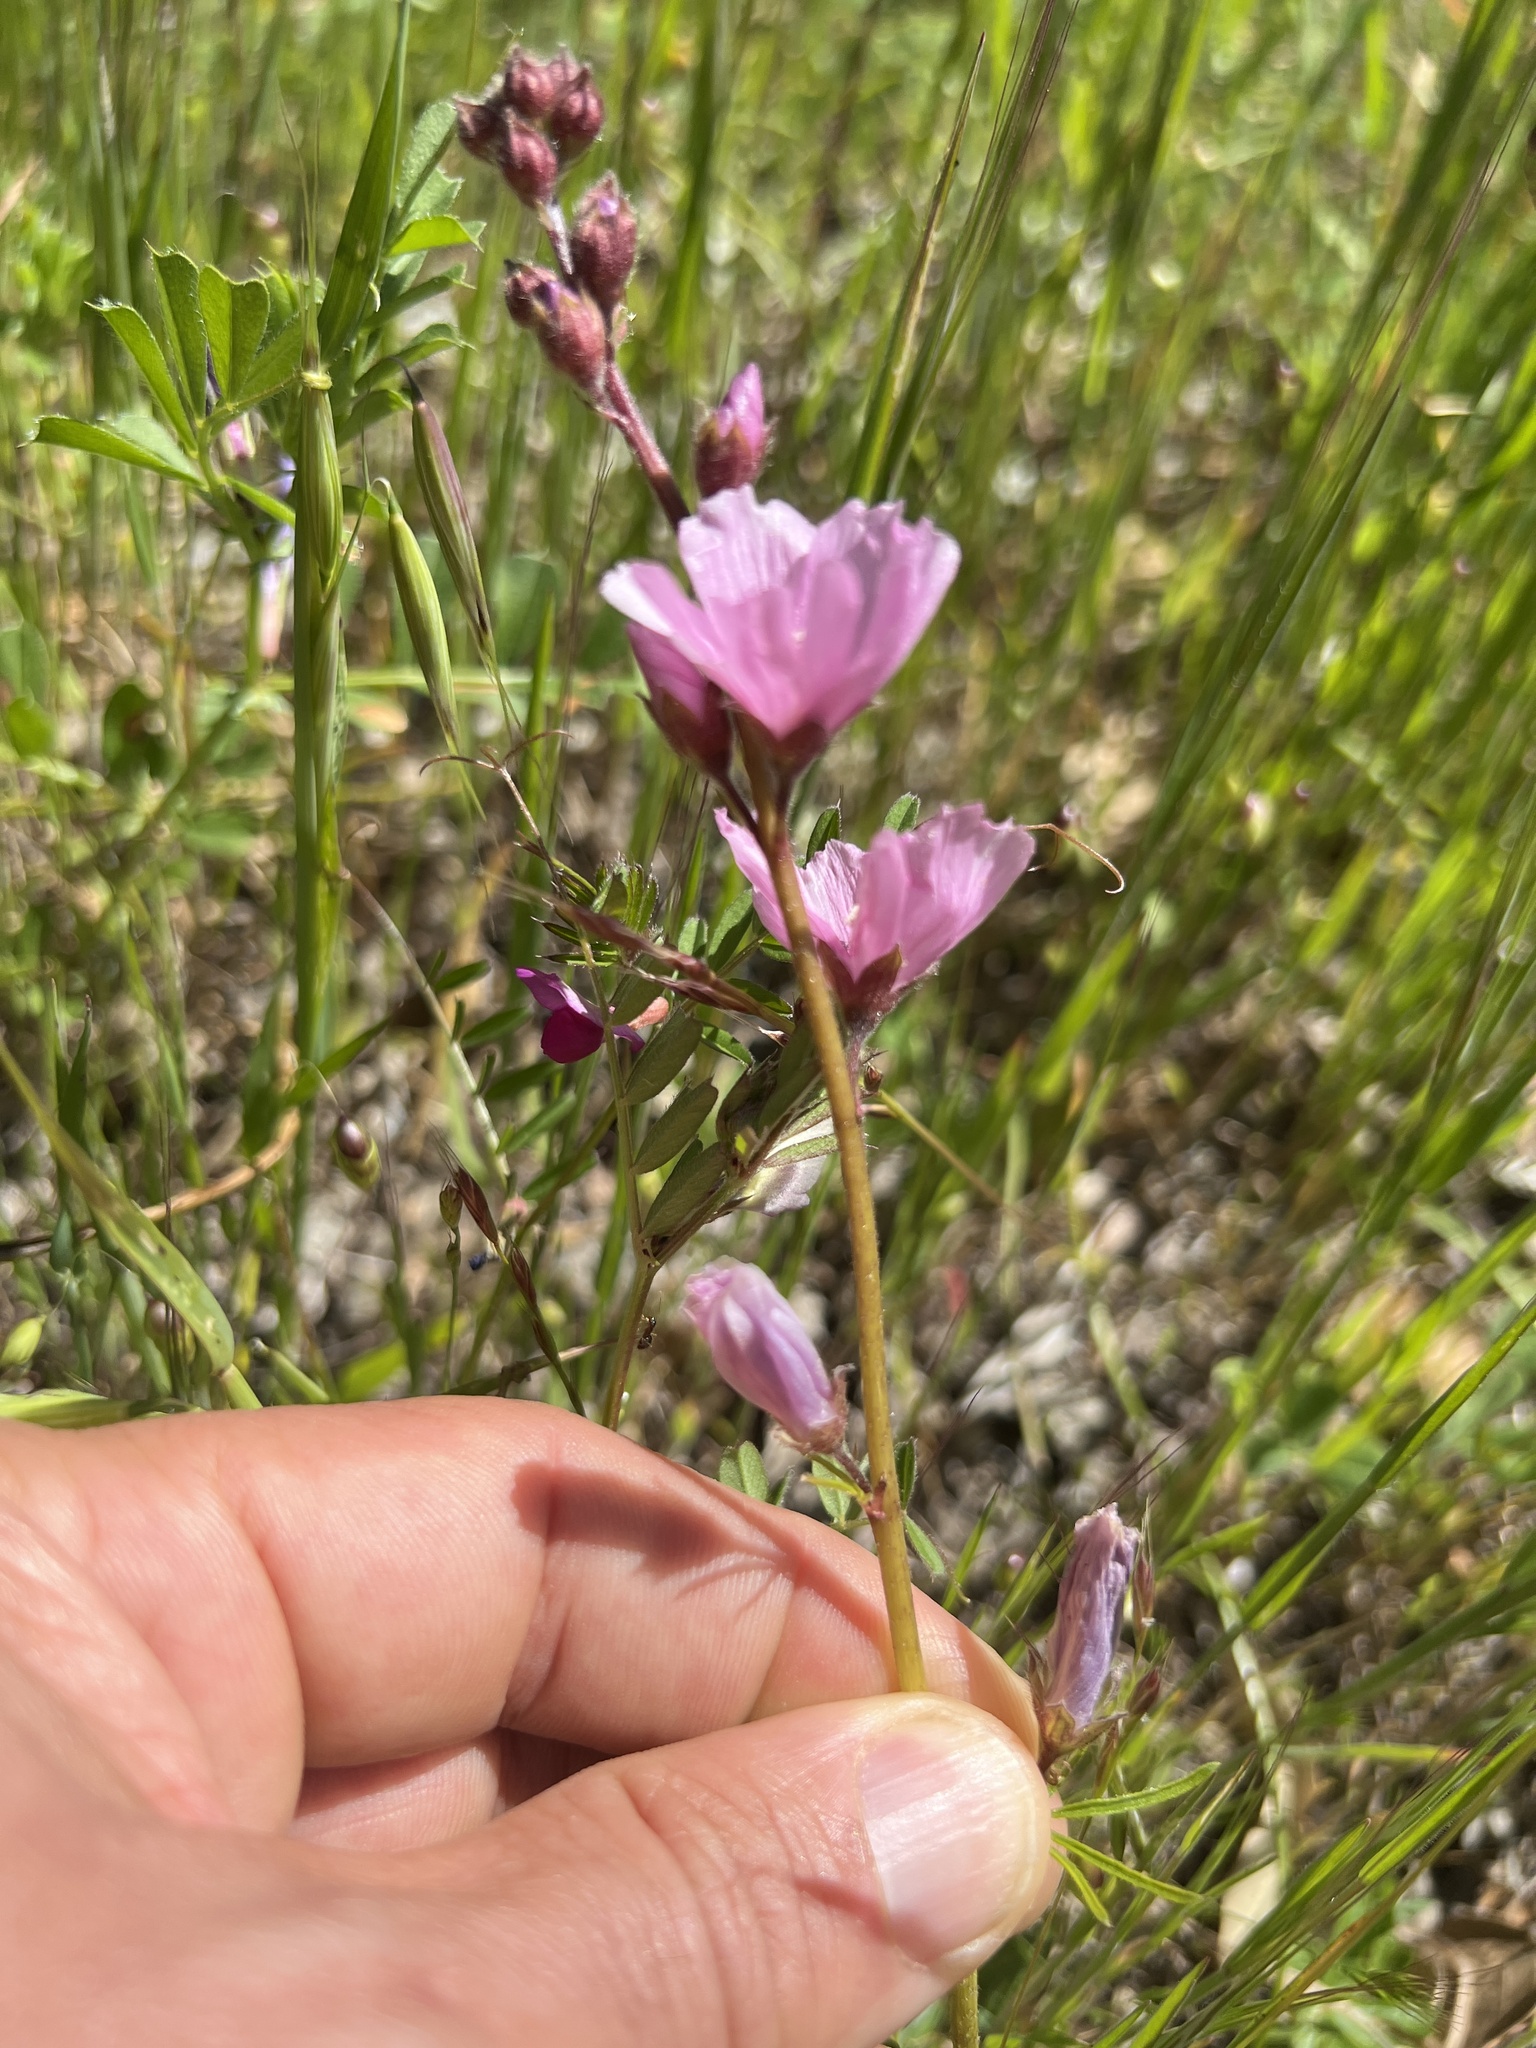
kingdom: Plantae
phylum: Tracheophyta
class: Magnoliopsida
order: Malvales
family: Malvaceae
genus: Sidalcea
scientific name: Sidalcea malviflora
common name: Greek mallow
